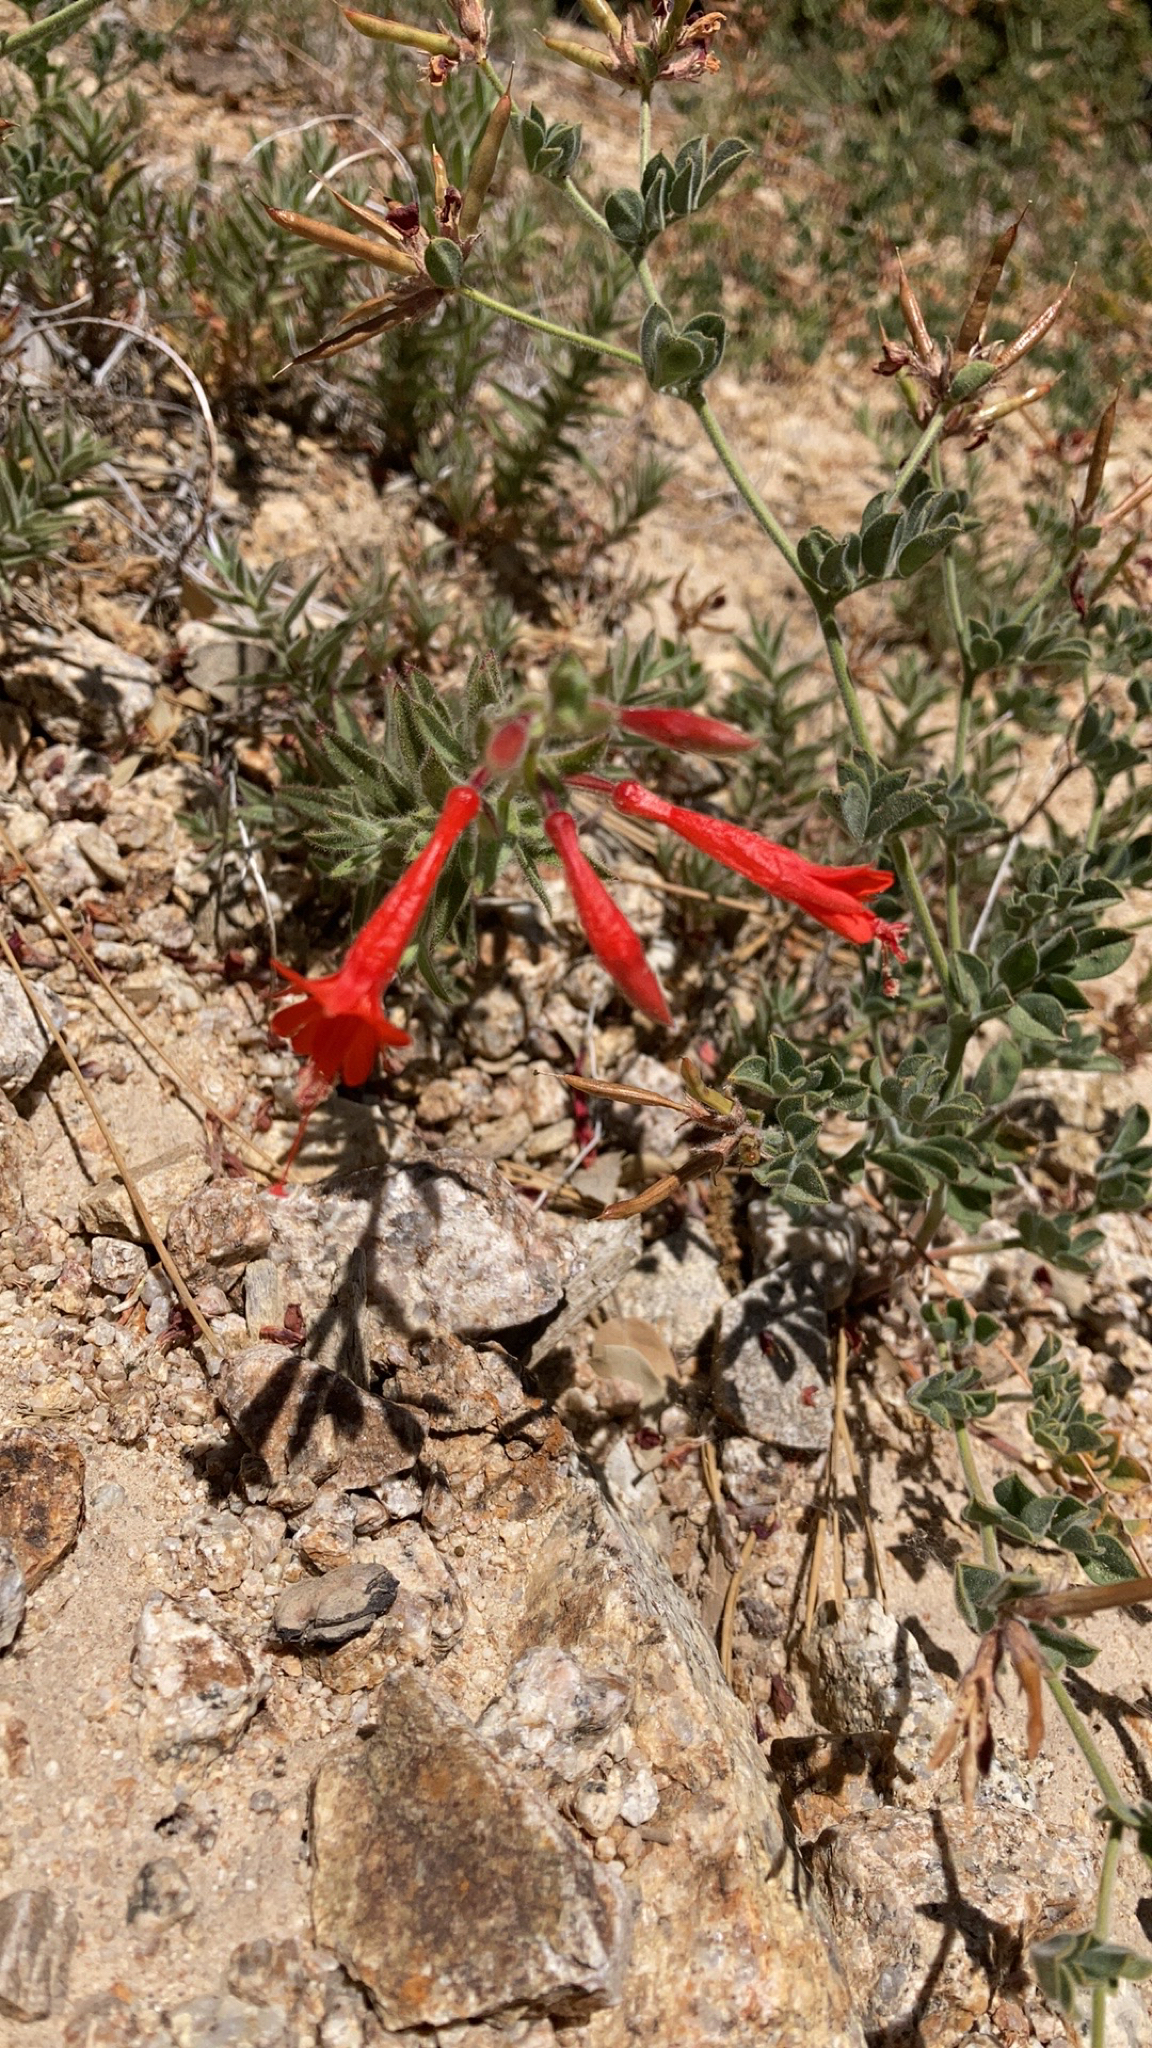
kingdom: Plantae
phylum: Tracheophyta
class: Magnoliopsida
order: Myrtales
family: Onagraceae
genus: Epilobium
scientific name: Epilobium canum
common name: California-fuchsia
